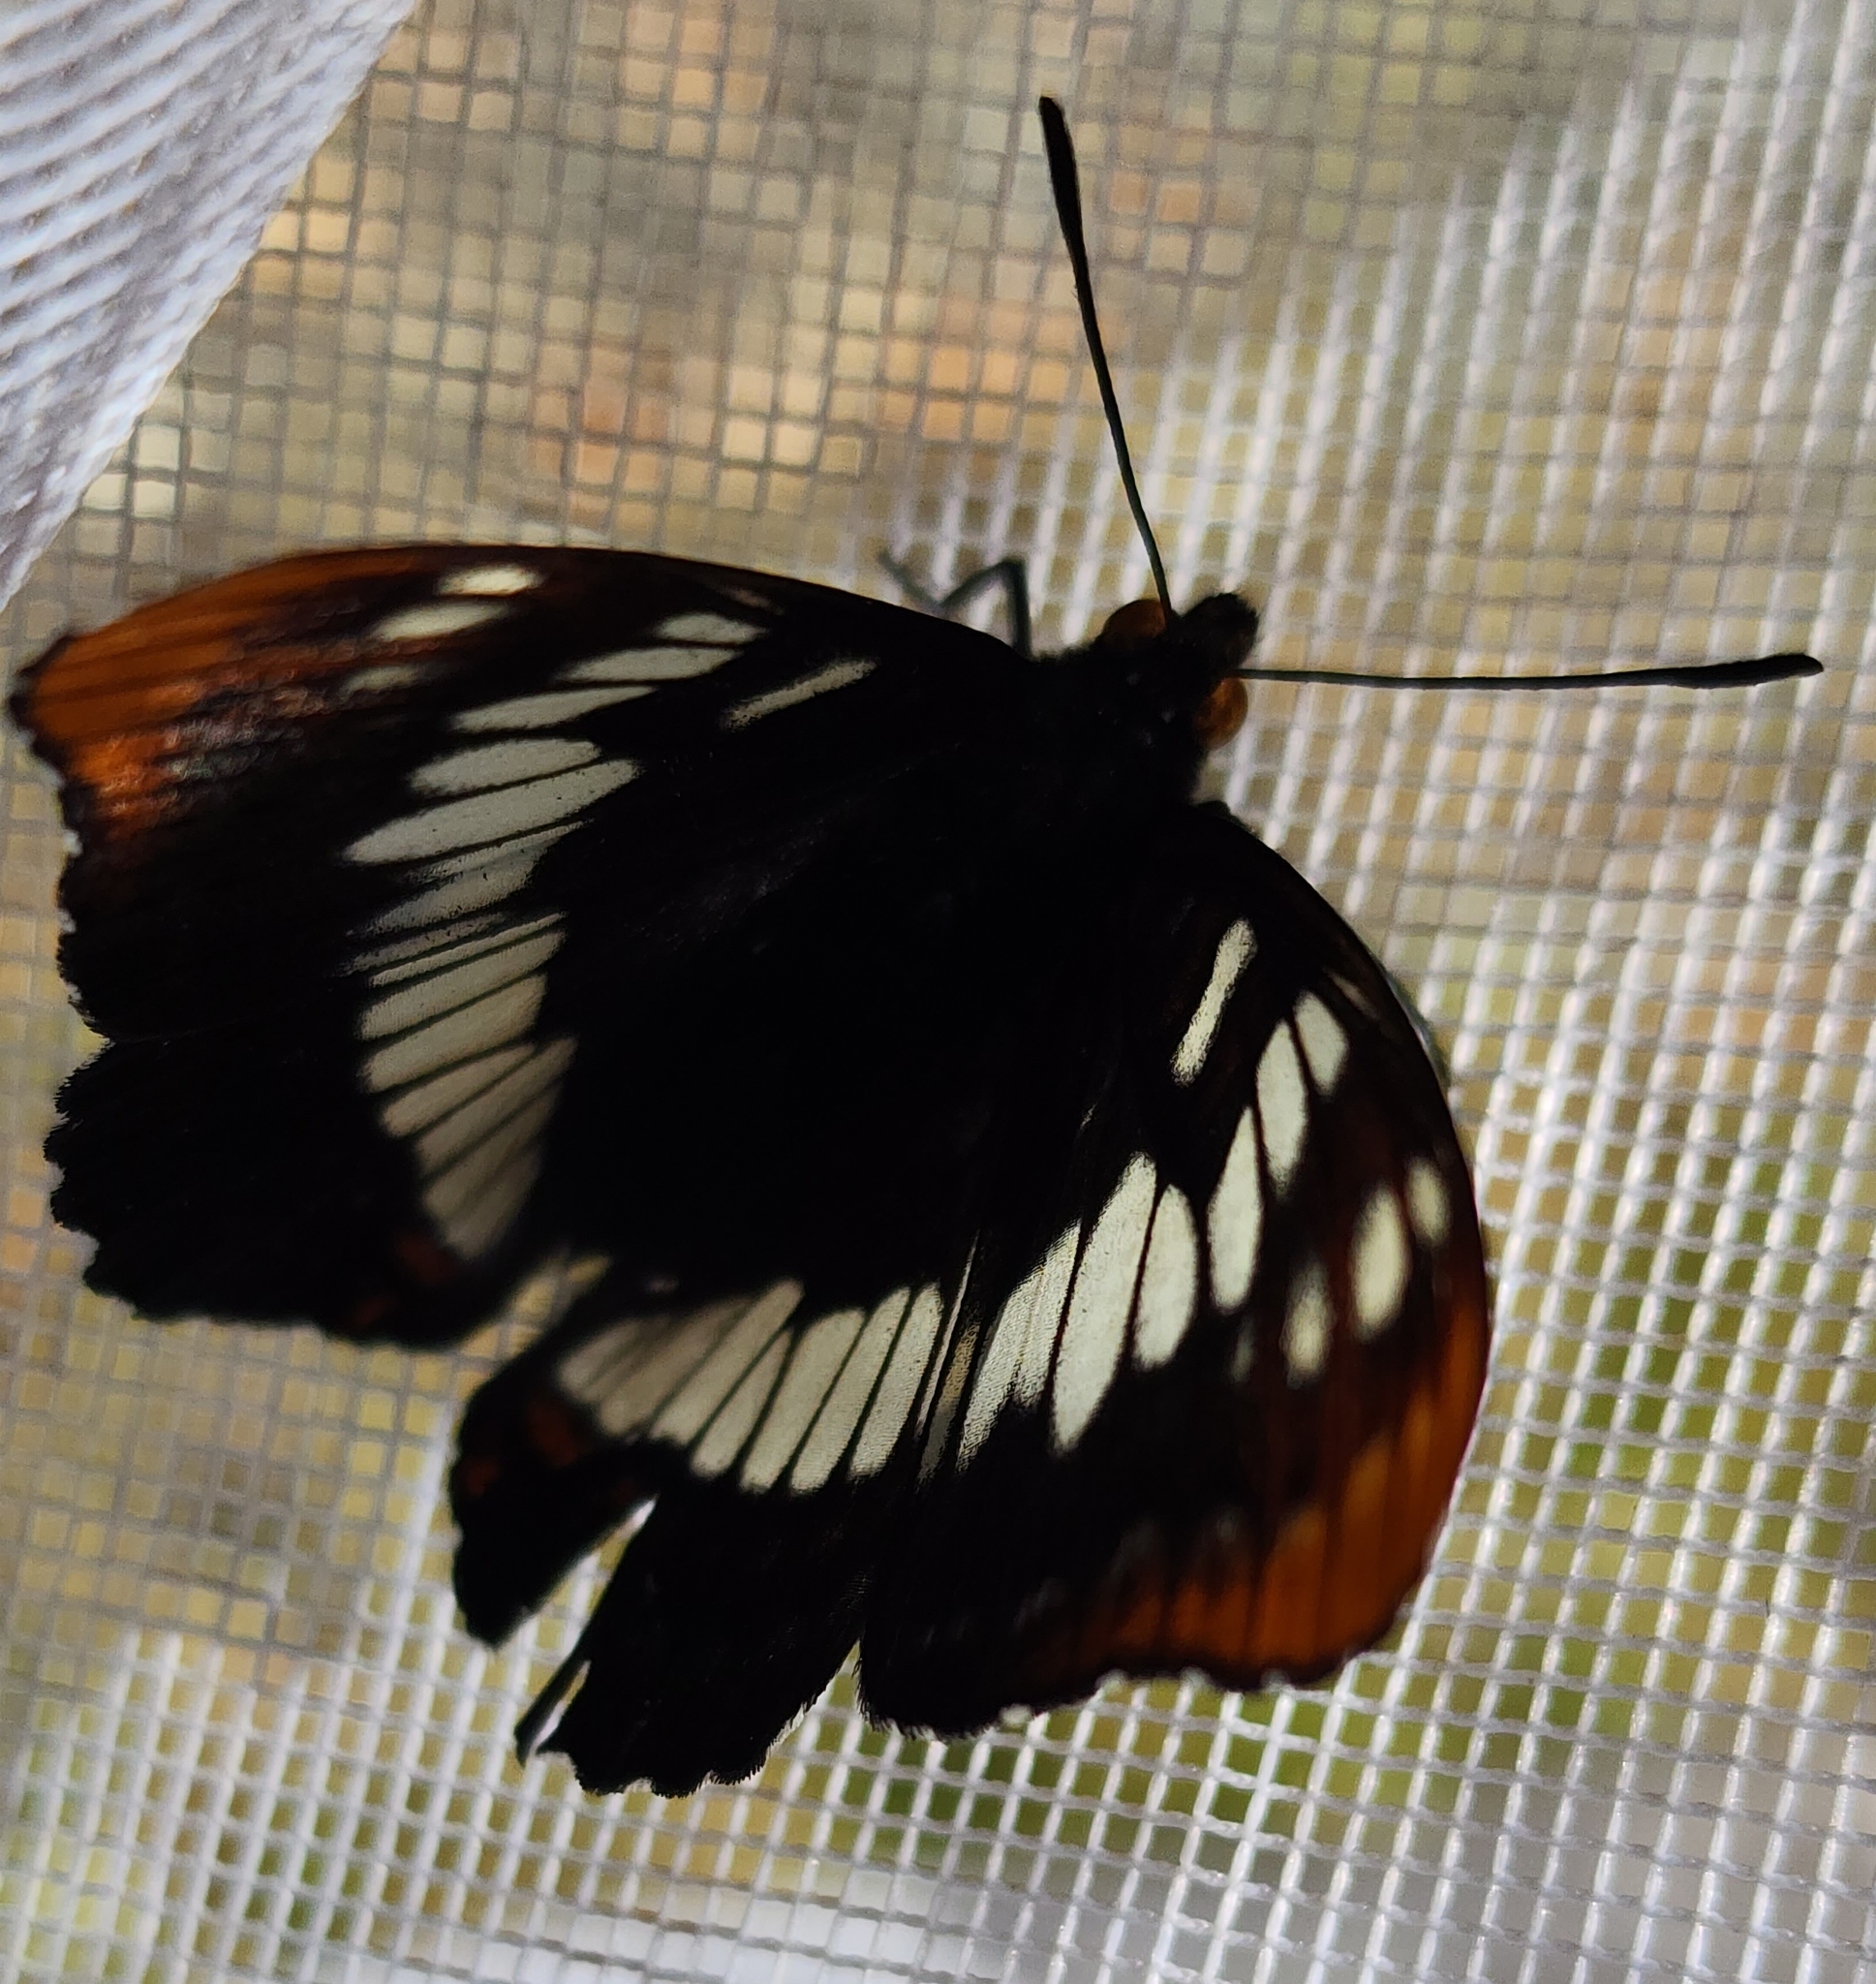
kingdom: Animalia
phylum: Arthropoda
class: Insecta
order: Lepidoptera
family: Nymphalidae
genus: Limenitis
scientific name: Limenitis lorquini
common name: Lorquin's admiral
